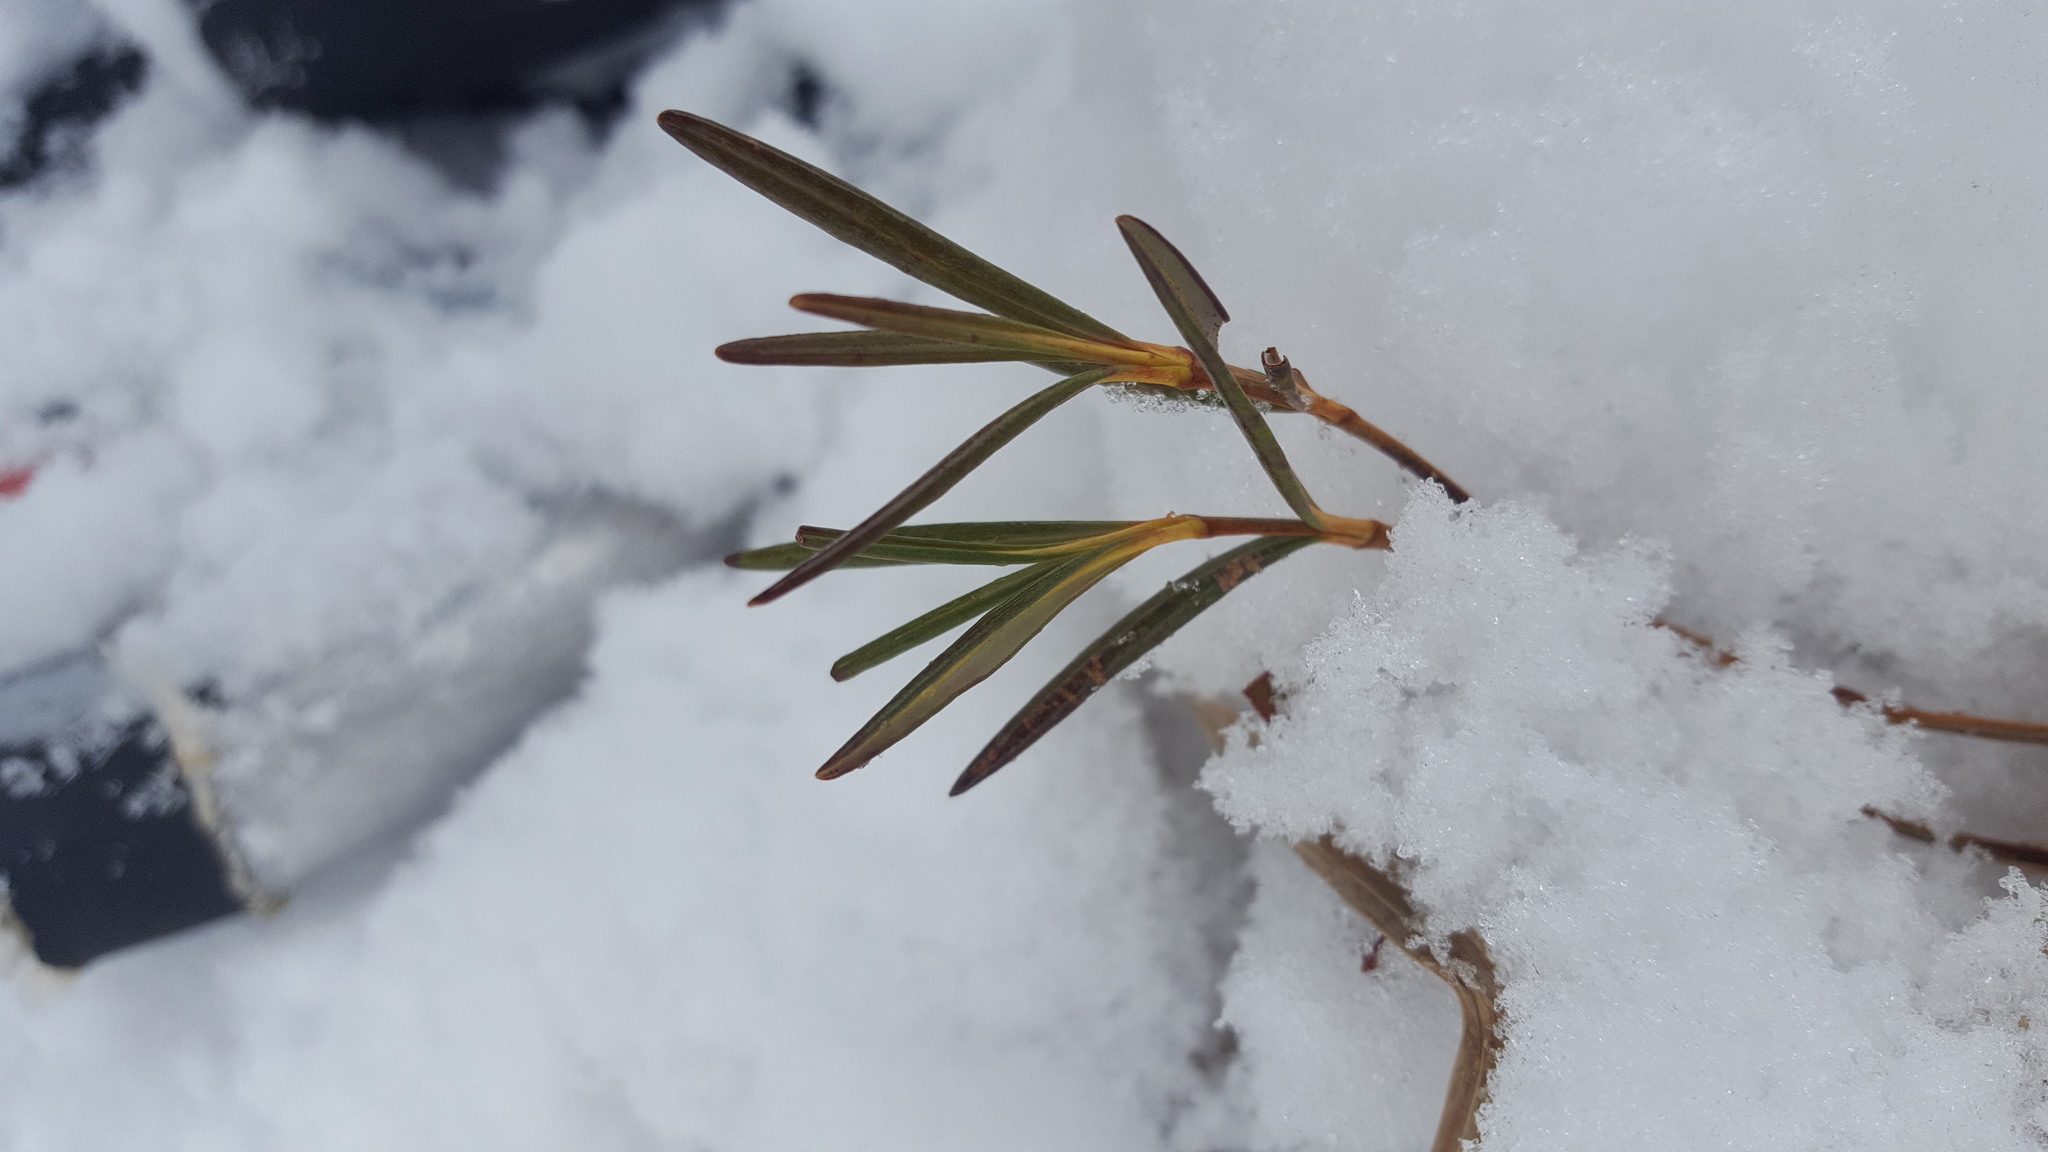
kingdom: Plantae
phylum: Tracheophyta
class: Magnoliopsida
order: Ericales
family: Ericaceae
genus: Kalmia
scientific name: Kalmia polifolia
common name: Bog-laurel
